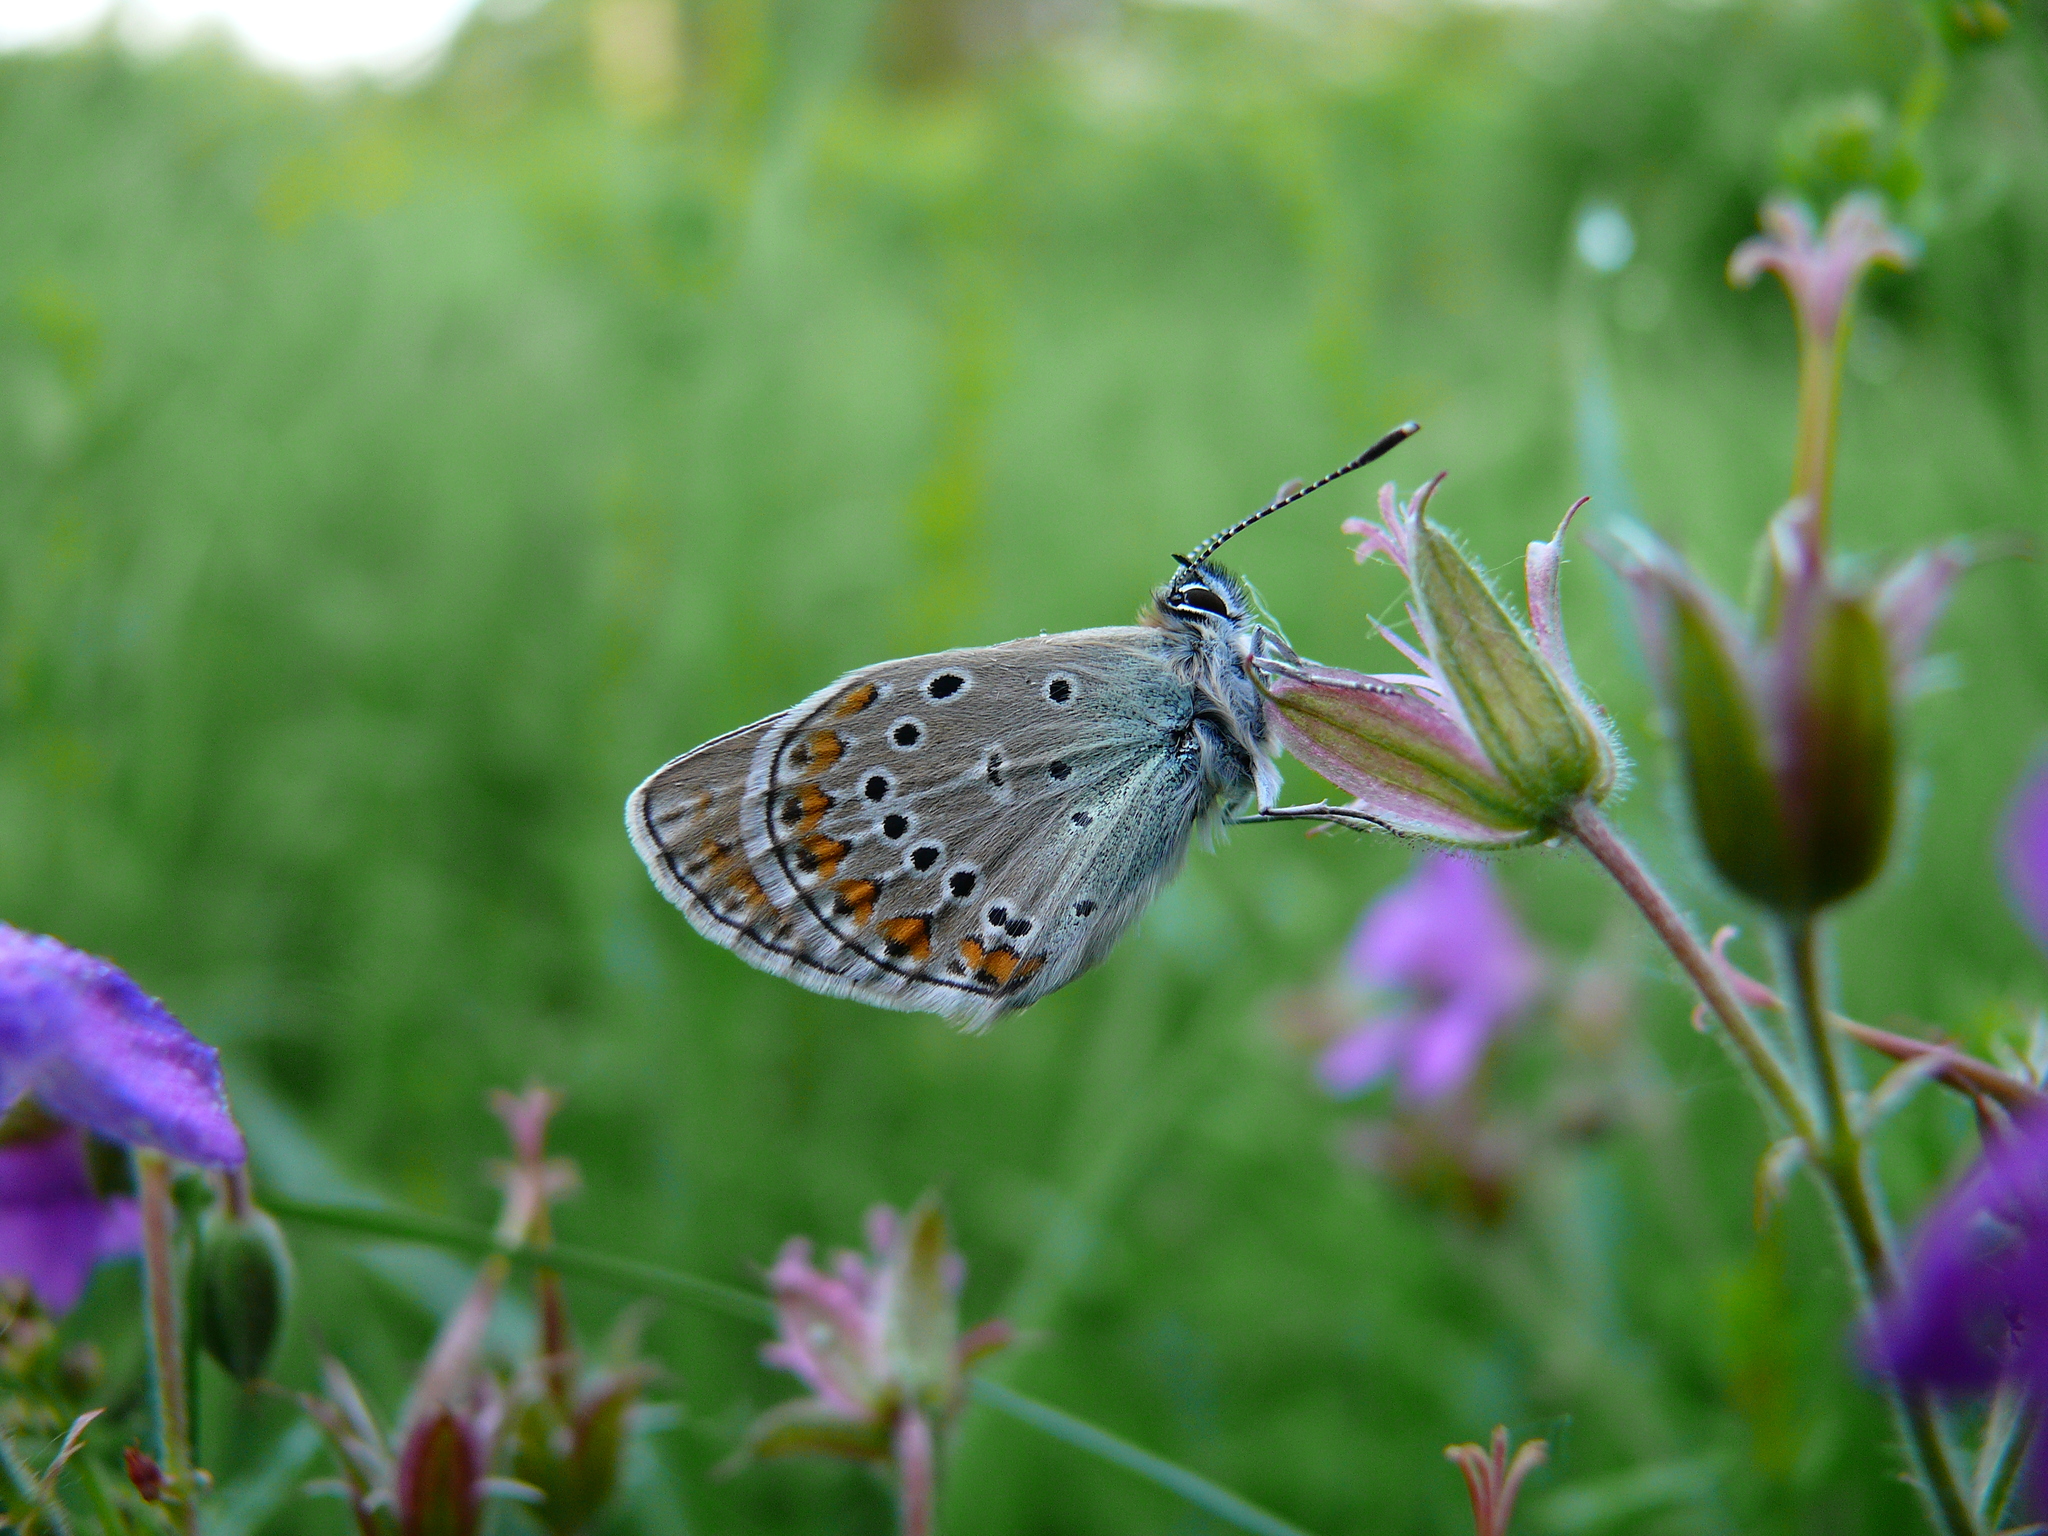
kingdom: Animalia
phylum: Arthropoda
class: Insecta
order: Lepidoptera
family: Lycaenidae
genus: Eumedonia
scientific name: Eumedonia eumedon
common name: Geranium argus
